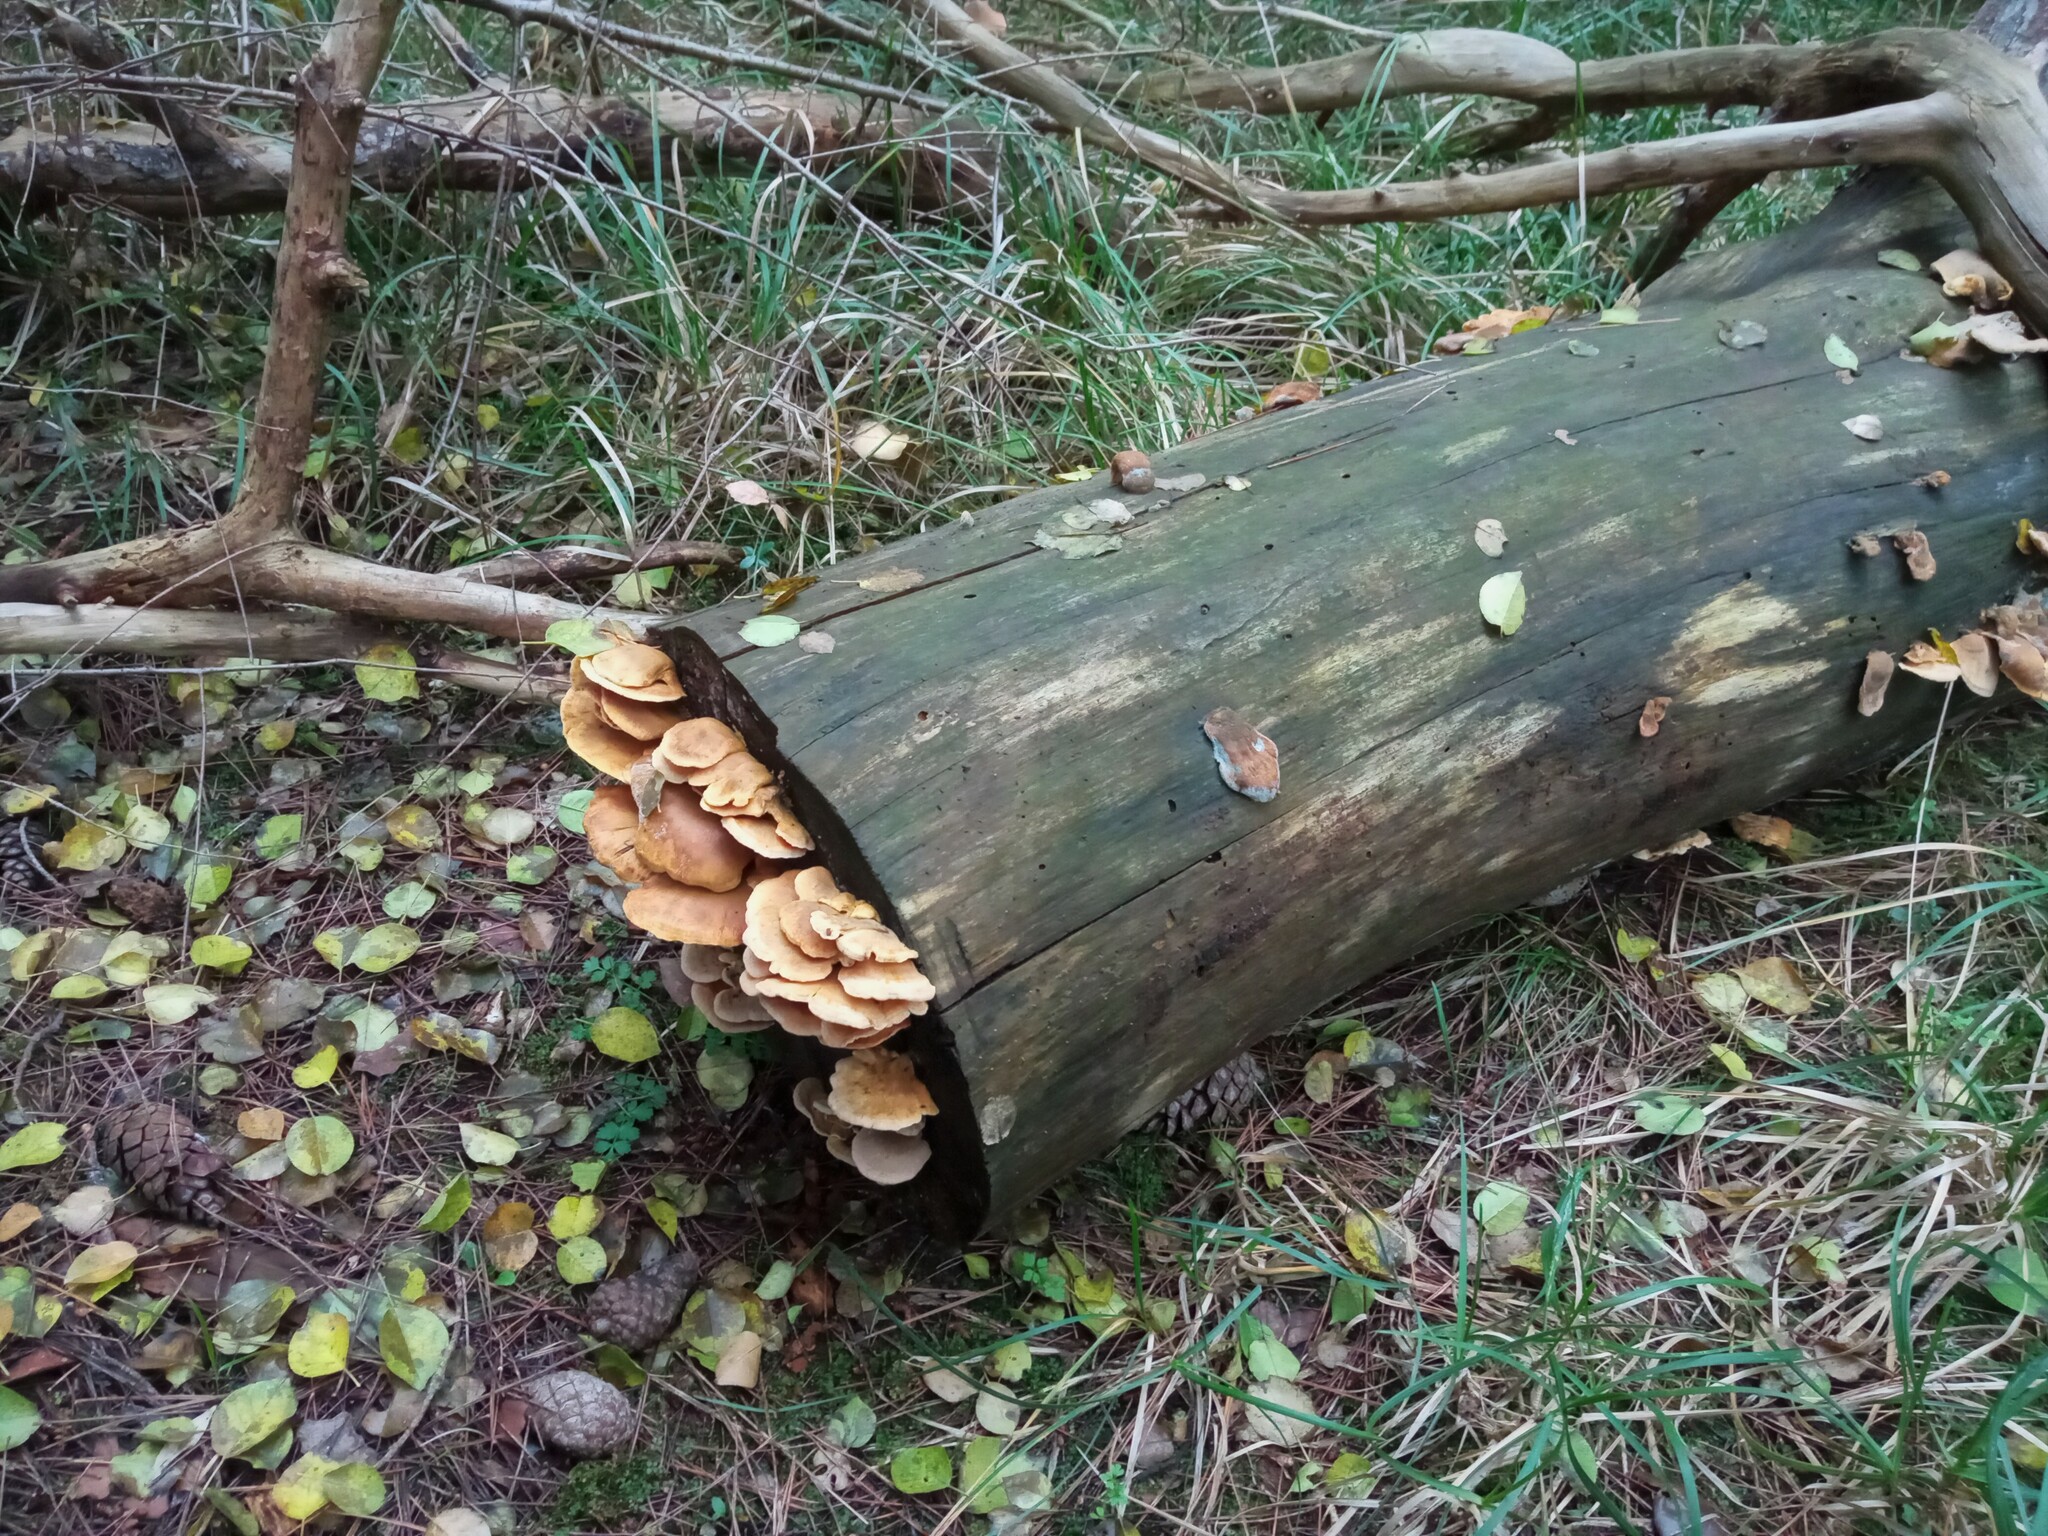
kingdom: Fungi
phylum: Basidiomycota
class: Agaricomycetes
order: Boletales
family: Tapinellaceae
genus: Tapinella
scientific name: Tapinella panuoides
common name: Oyster rollrim
